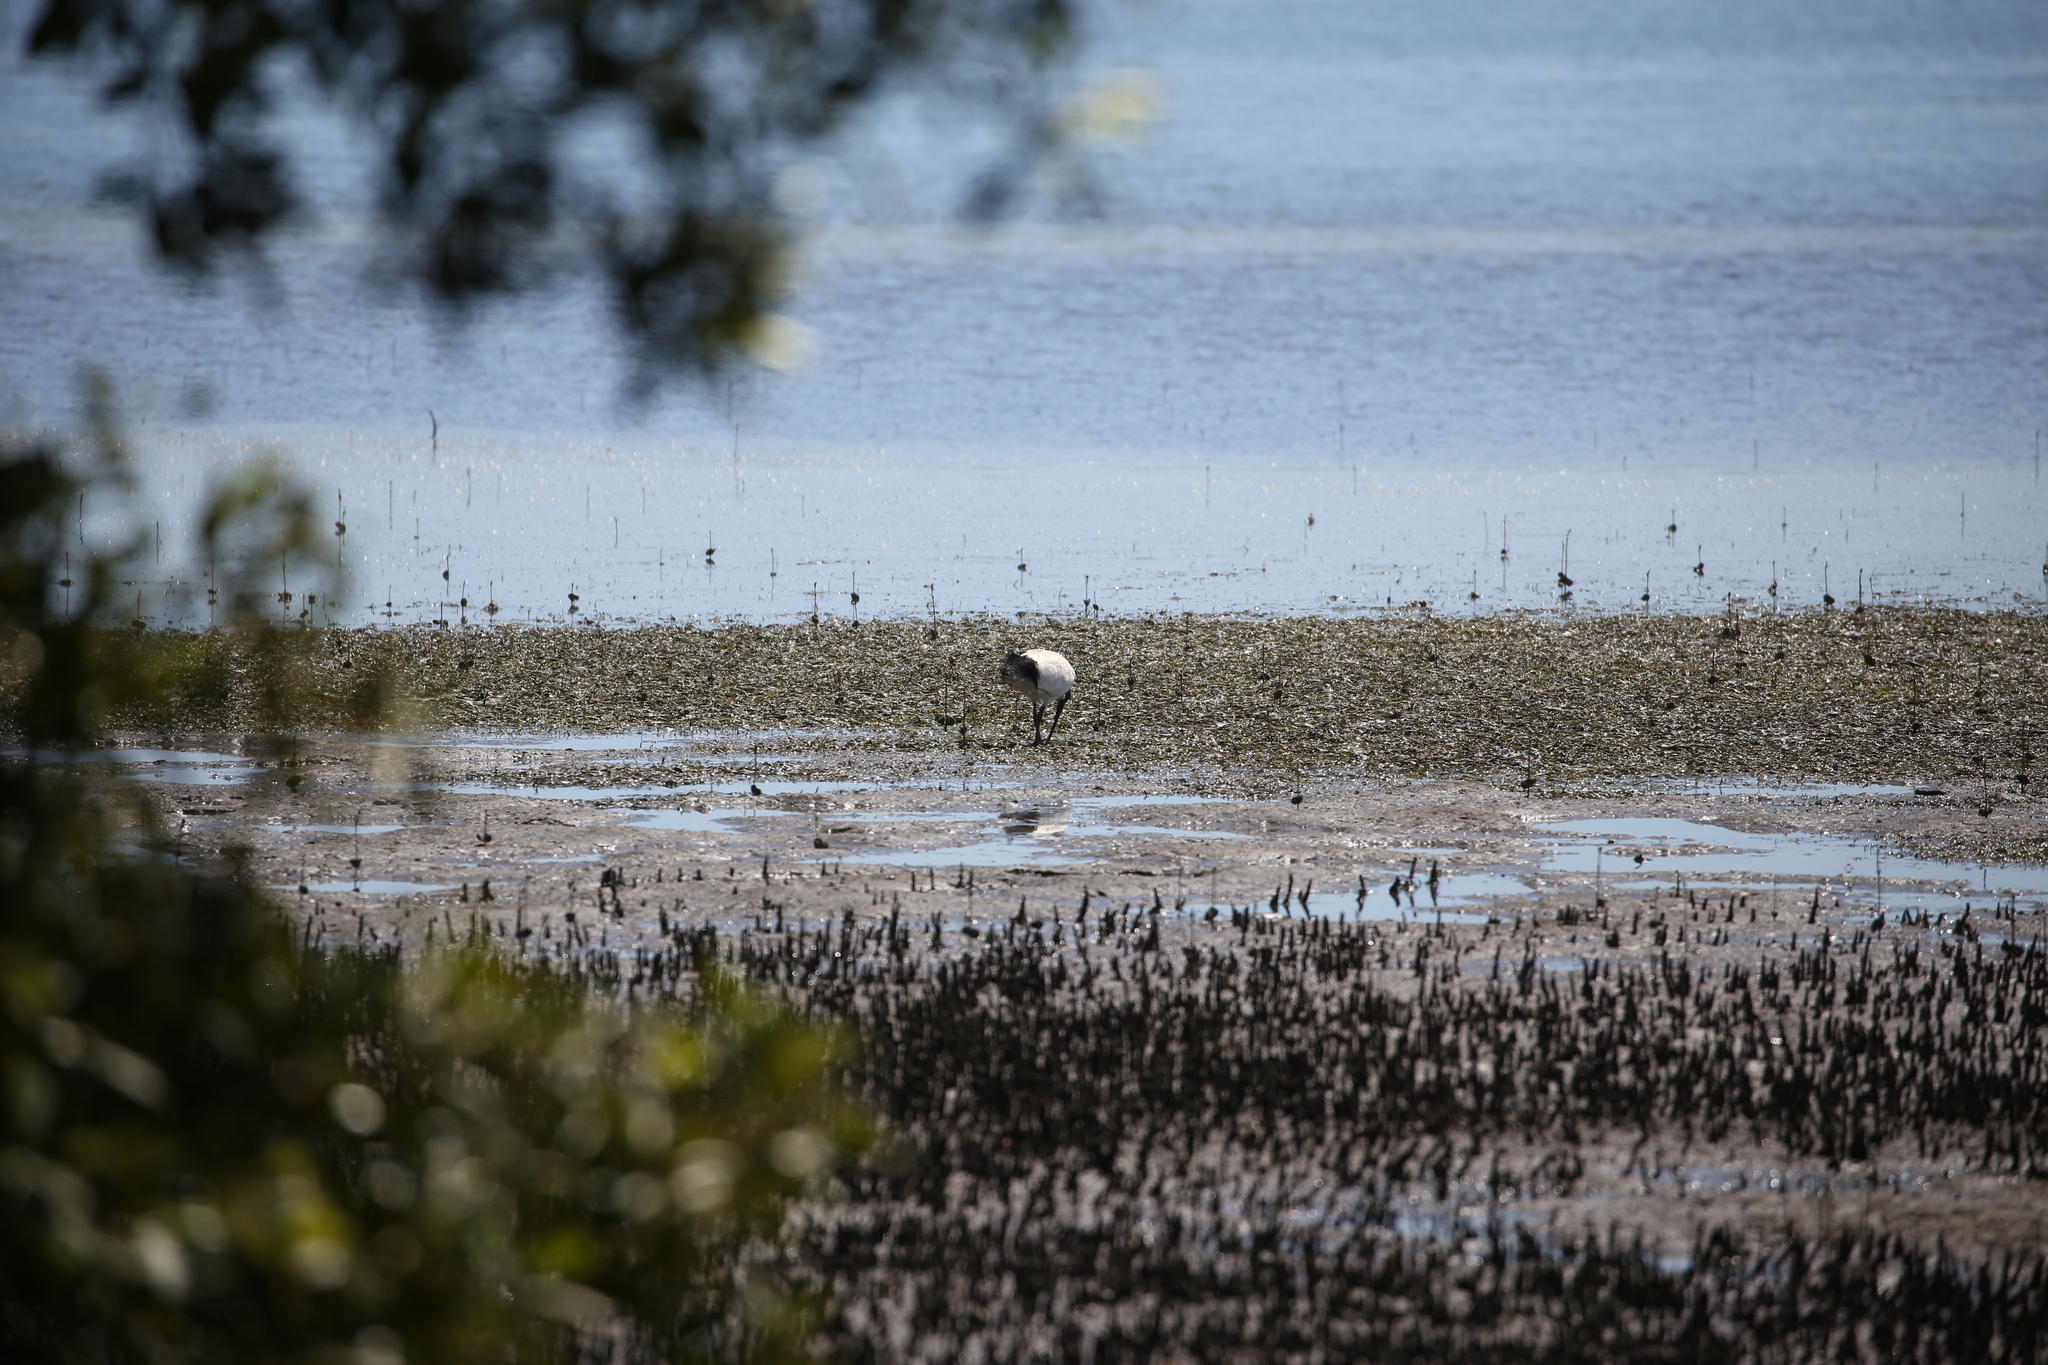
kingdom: Animalia
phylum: Chordata
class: Aves
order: Pelecaniformes
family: Threskiornithidae
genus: Threskiornis
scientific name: Threskiornis molucca
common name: Australian white ibis
